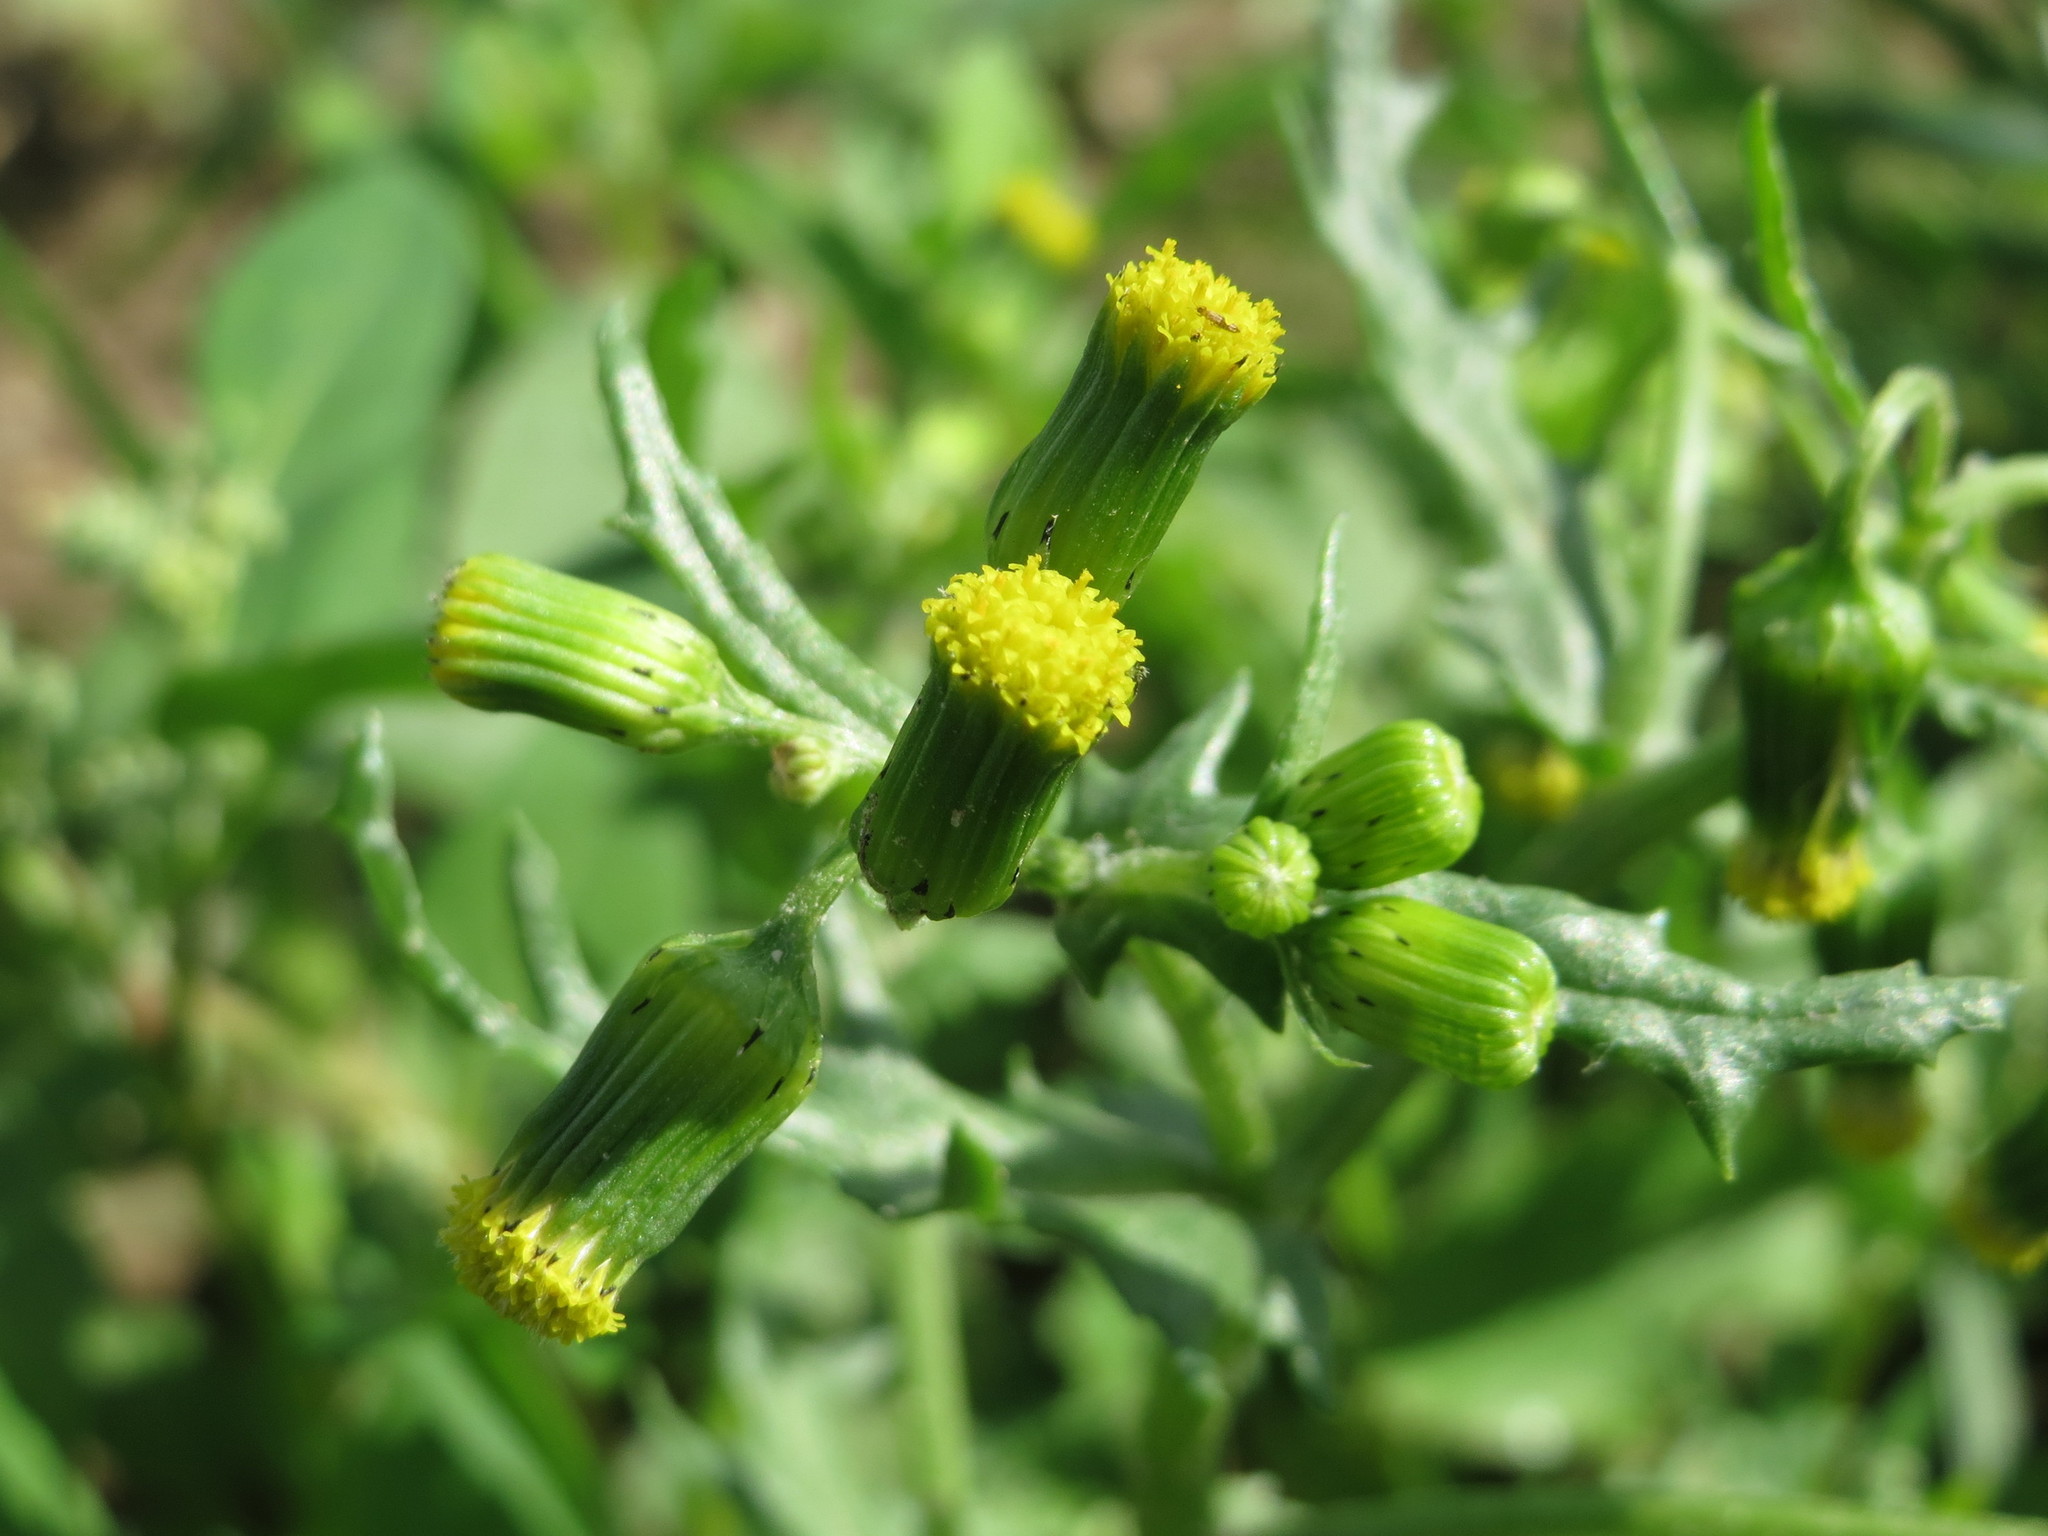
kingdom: Plantae
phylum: Tracheophyta
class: Magnoliopsida
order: Asterales
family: Asteraceae
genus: Senecio
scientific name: Senecio vulgaris
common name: Old-man-in-the-spring
